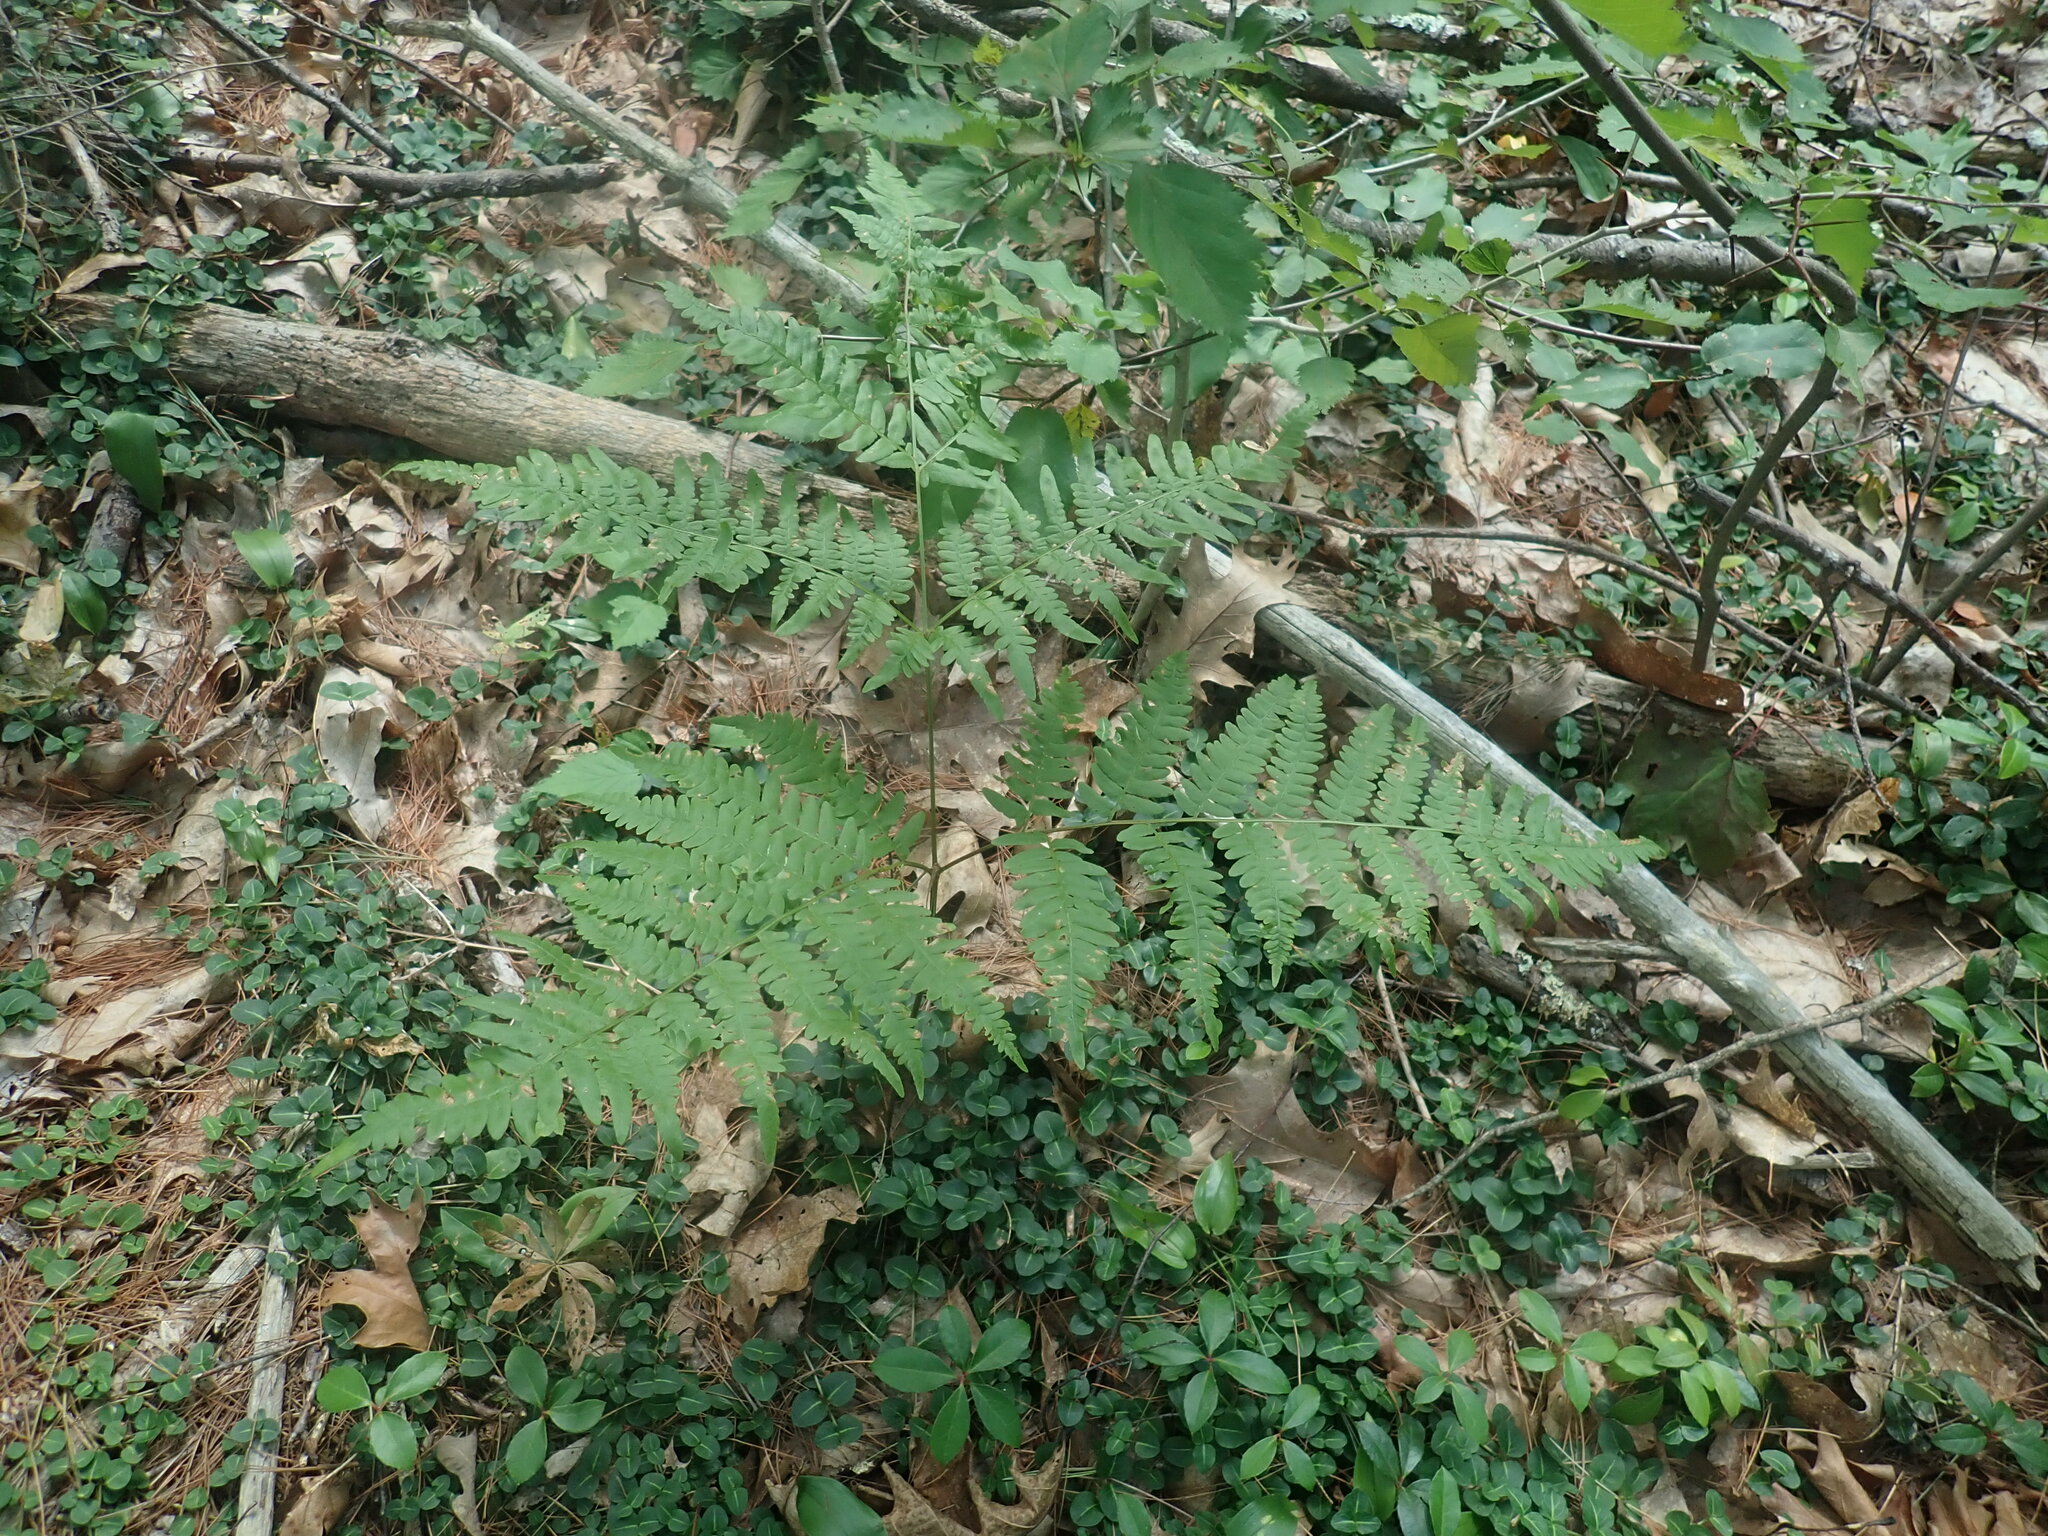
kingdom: Plantae
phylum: Tracheophyta
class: Polypodiopsida
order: Polypodiales
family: Dennstaedtiaceae
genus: Pteridium
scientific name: Pteridium aquilinum
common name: Bracken
